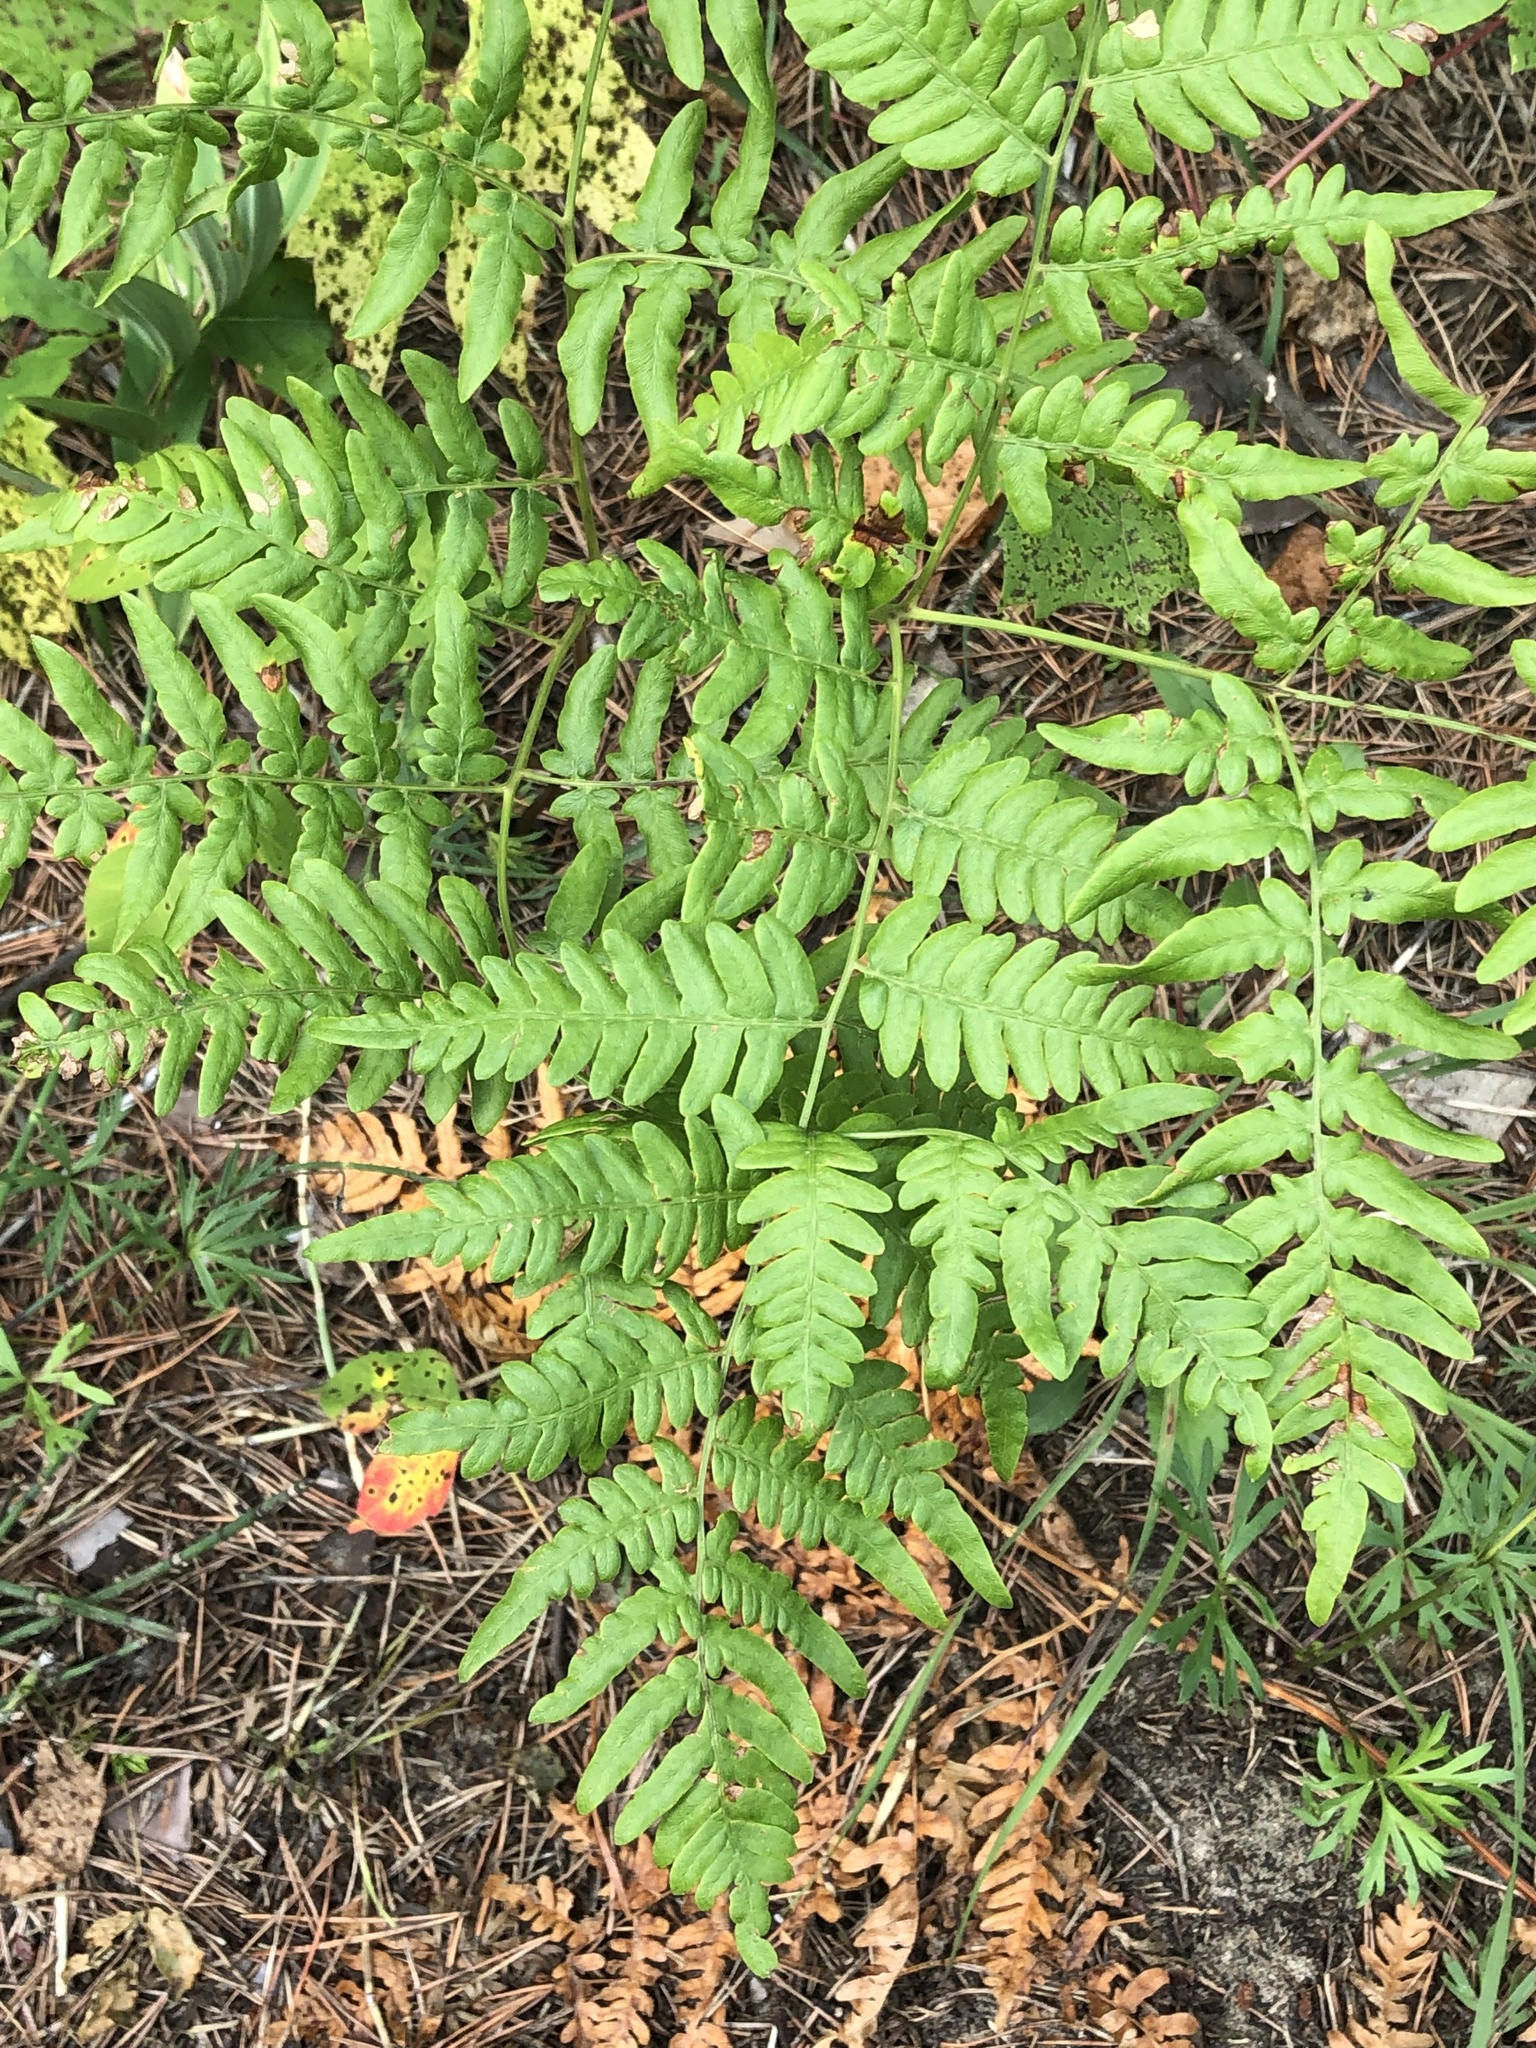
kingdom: Plantae
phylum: Tracheophyta
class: Polypodiopsida
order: Polypodiales
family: Dennstaedtiaceae
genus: Pteridium
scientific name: Pteridium aquilinum
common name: Bracken
